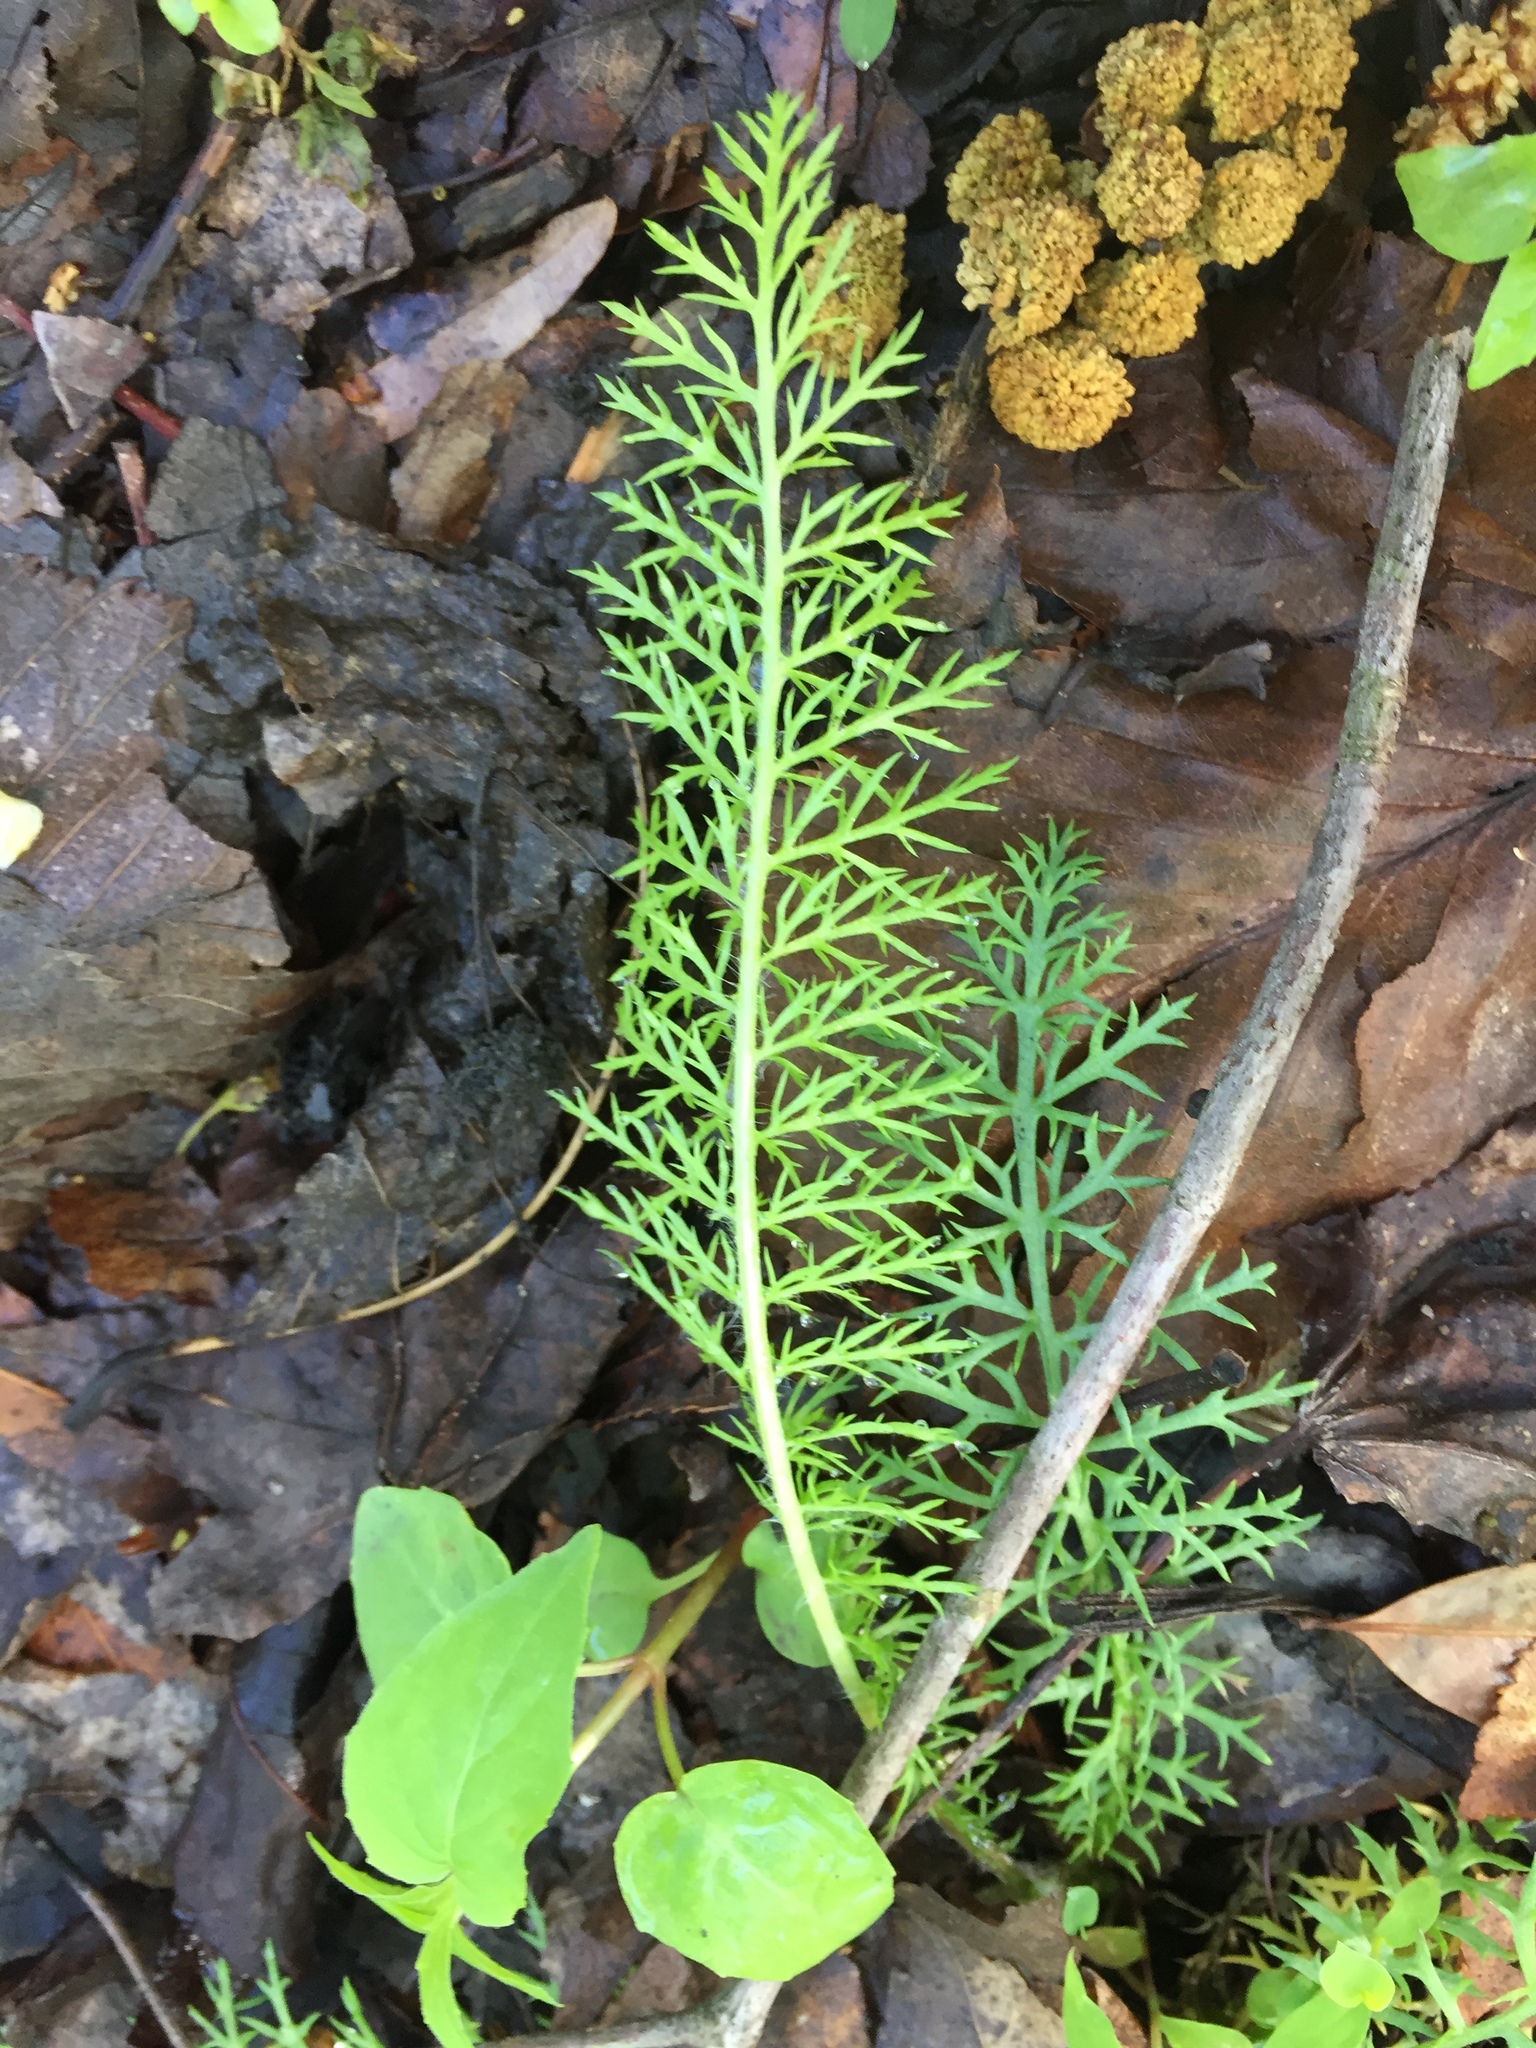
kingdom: Plantae
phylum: Tracheophyta
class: Magnoliopsida
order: Asterales
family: Asteraceae
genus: Achillea
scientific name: Achillea millefolium
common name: Yarrow
